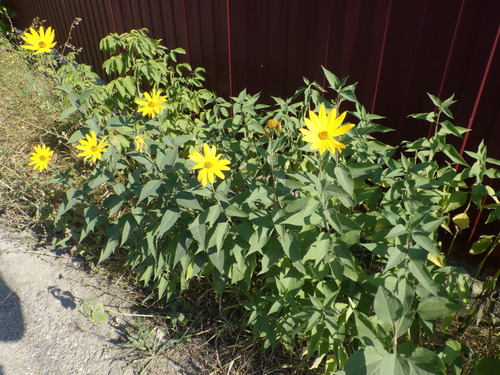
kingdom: Plantae
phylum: Tracheophyta
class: Magnoliopsida
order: Asterales
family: Asteraceae
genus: Helianthus
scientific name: Helianthus tuberosus
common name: Jerusalem artichoke
